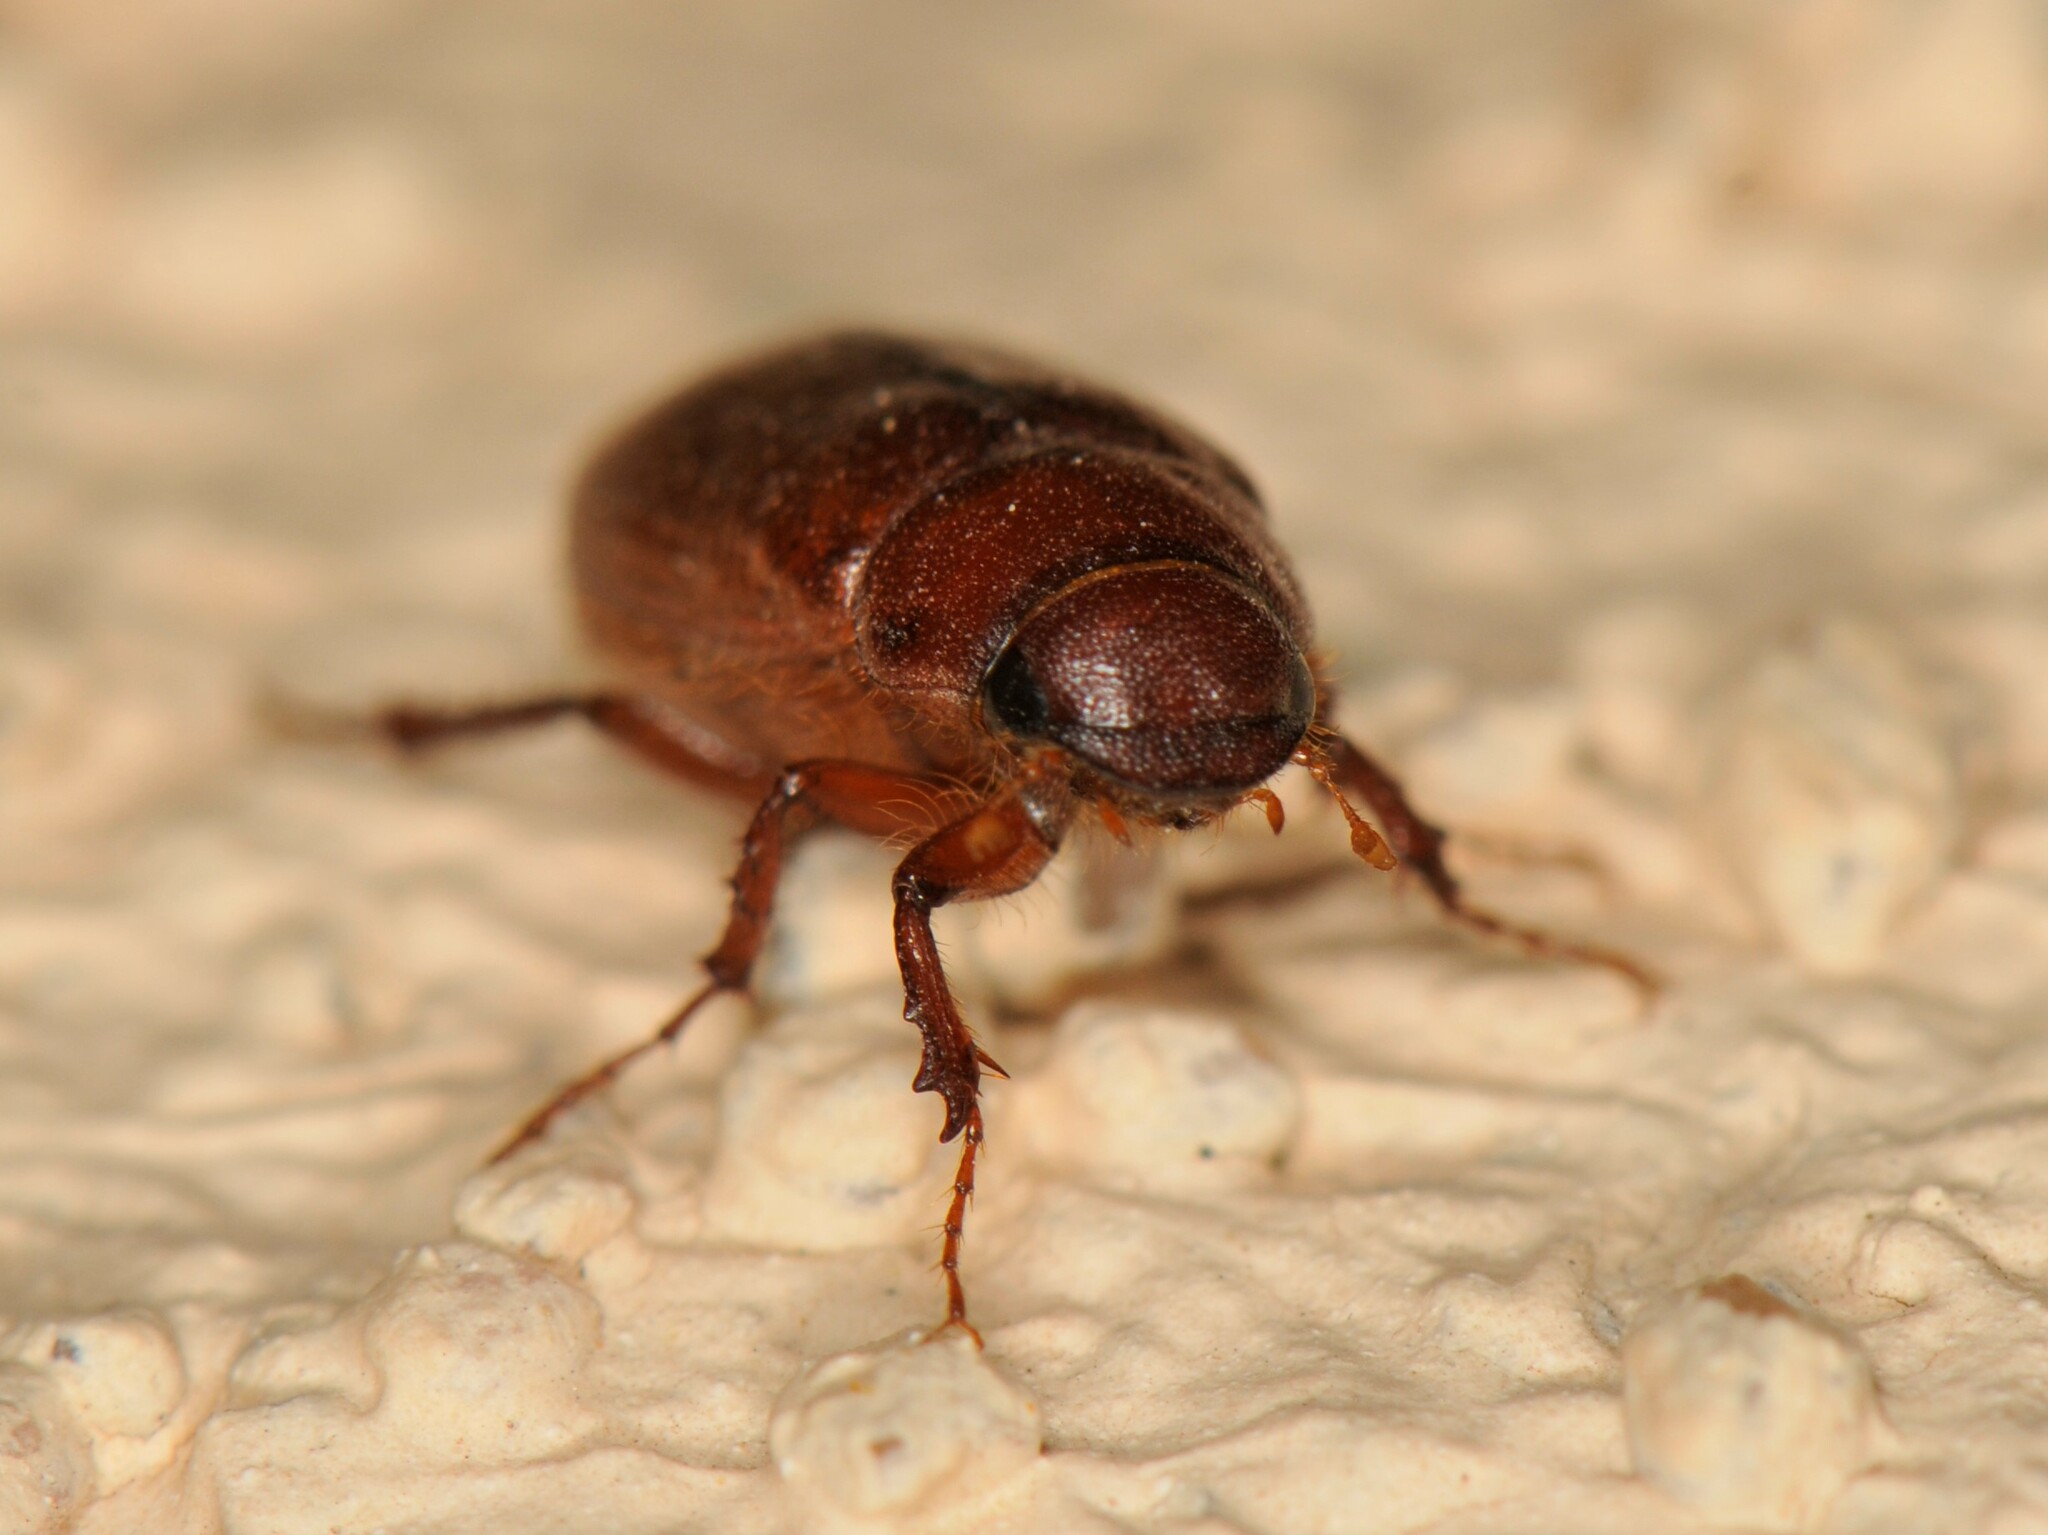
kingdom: Animalia
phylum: Arthropoda
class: Insecta
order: Coleoptera
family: Scarabaeidae
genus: Diplotaxis
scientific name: Diplotaxis
